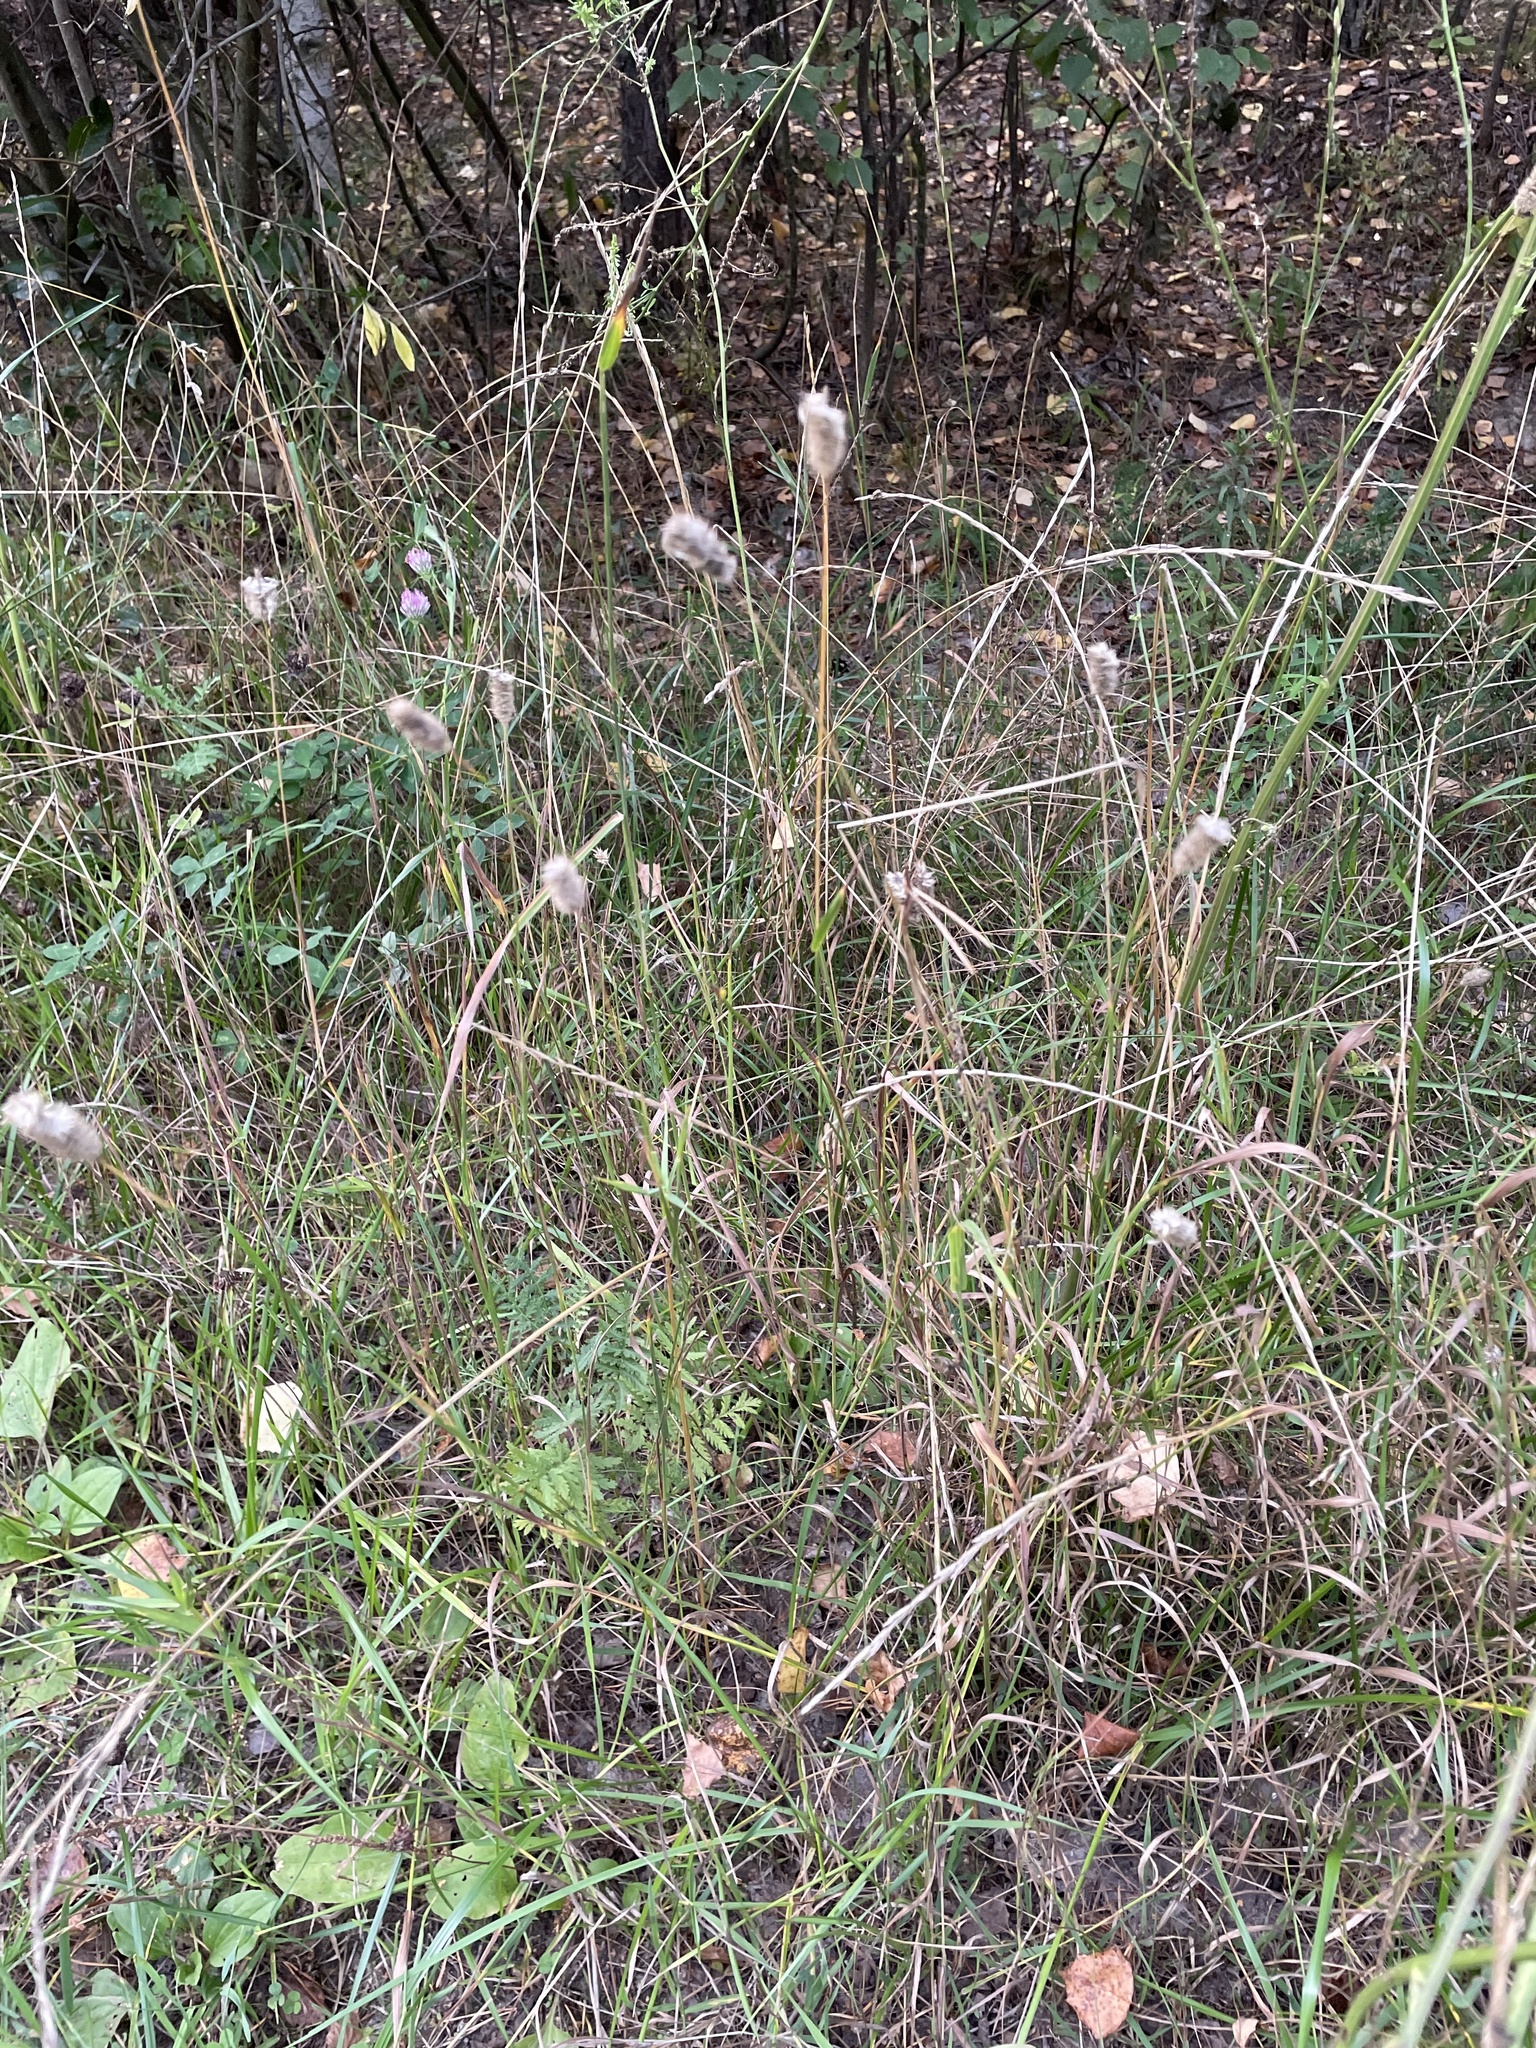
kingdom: Plantae
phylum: Tracheophyta
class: Liliopsida
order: Poales
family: Poaceae
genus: Phleum
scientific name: Phleum pratense
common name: Timothy grass
